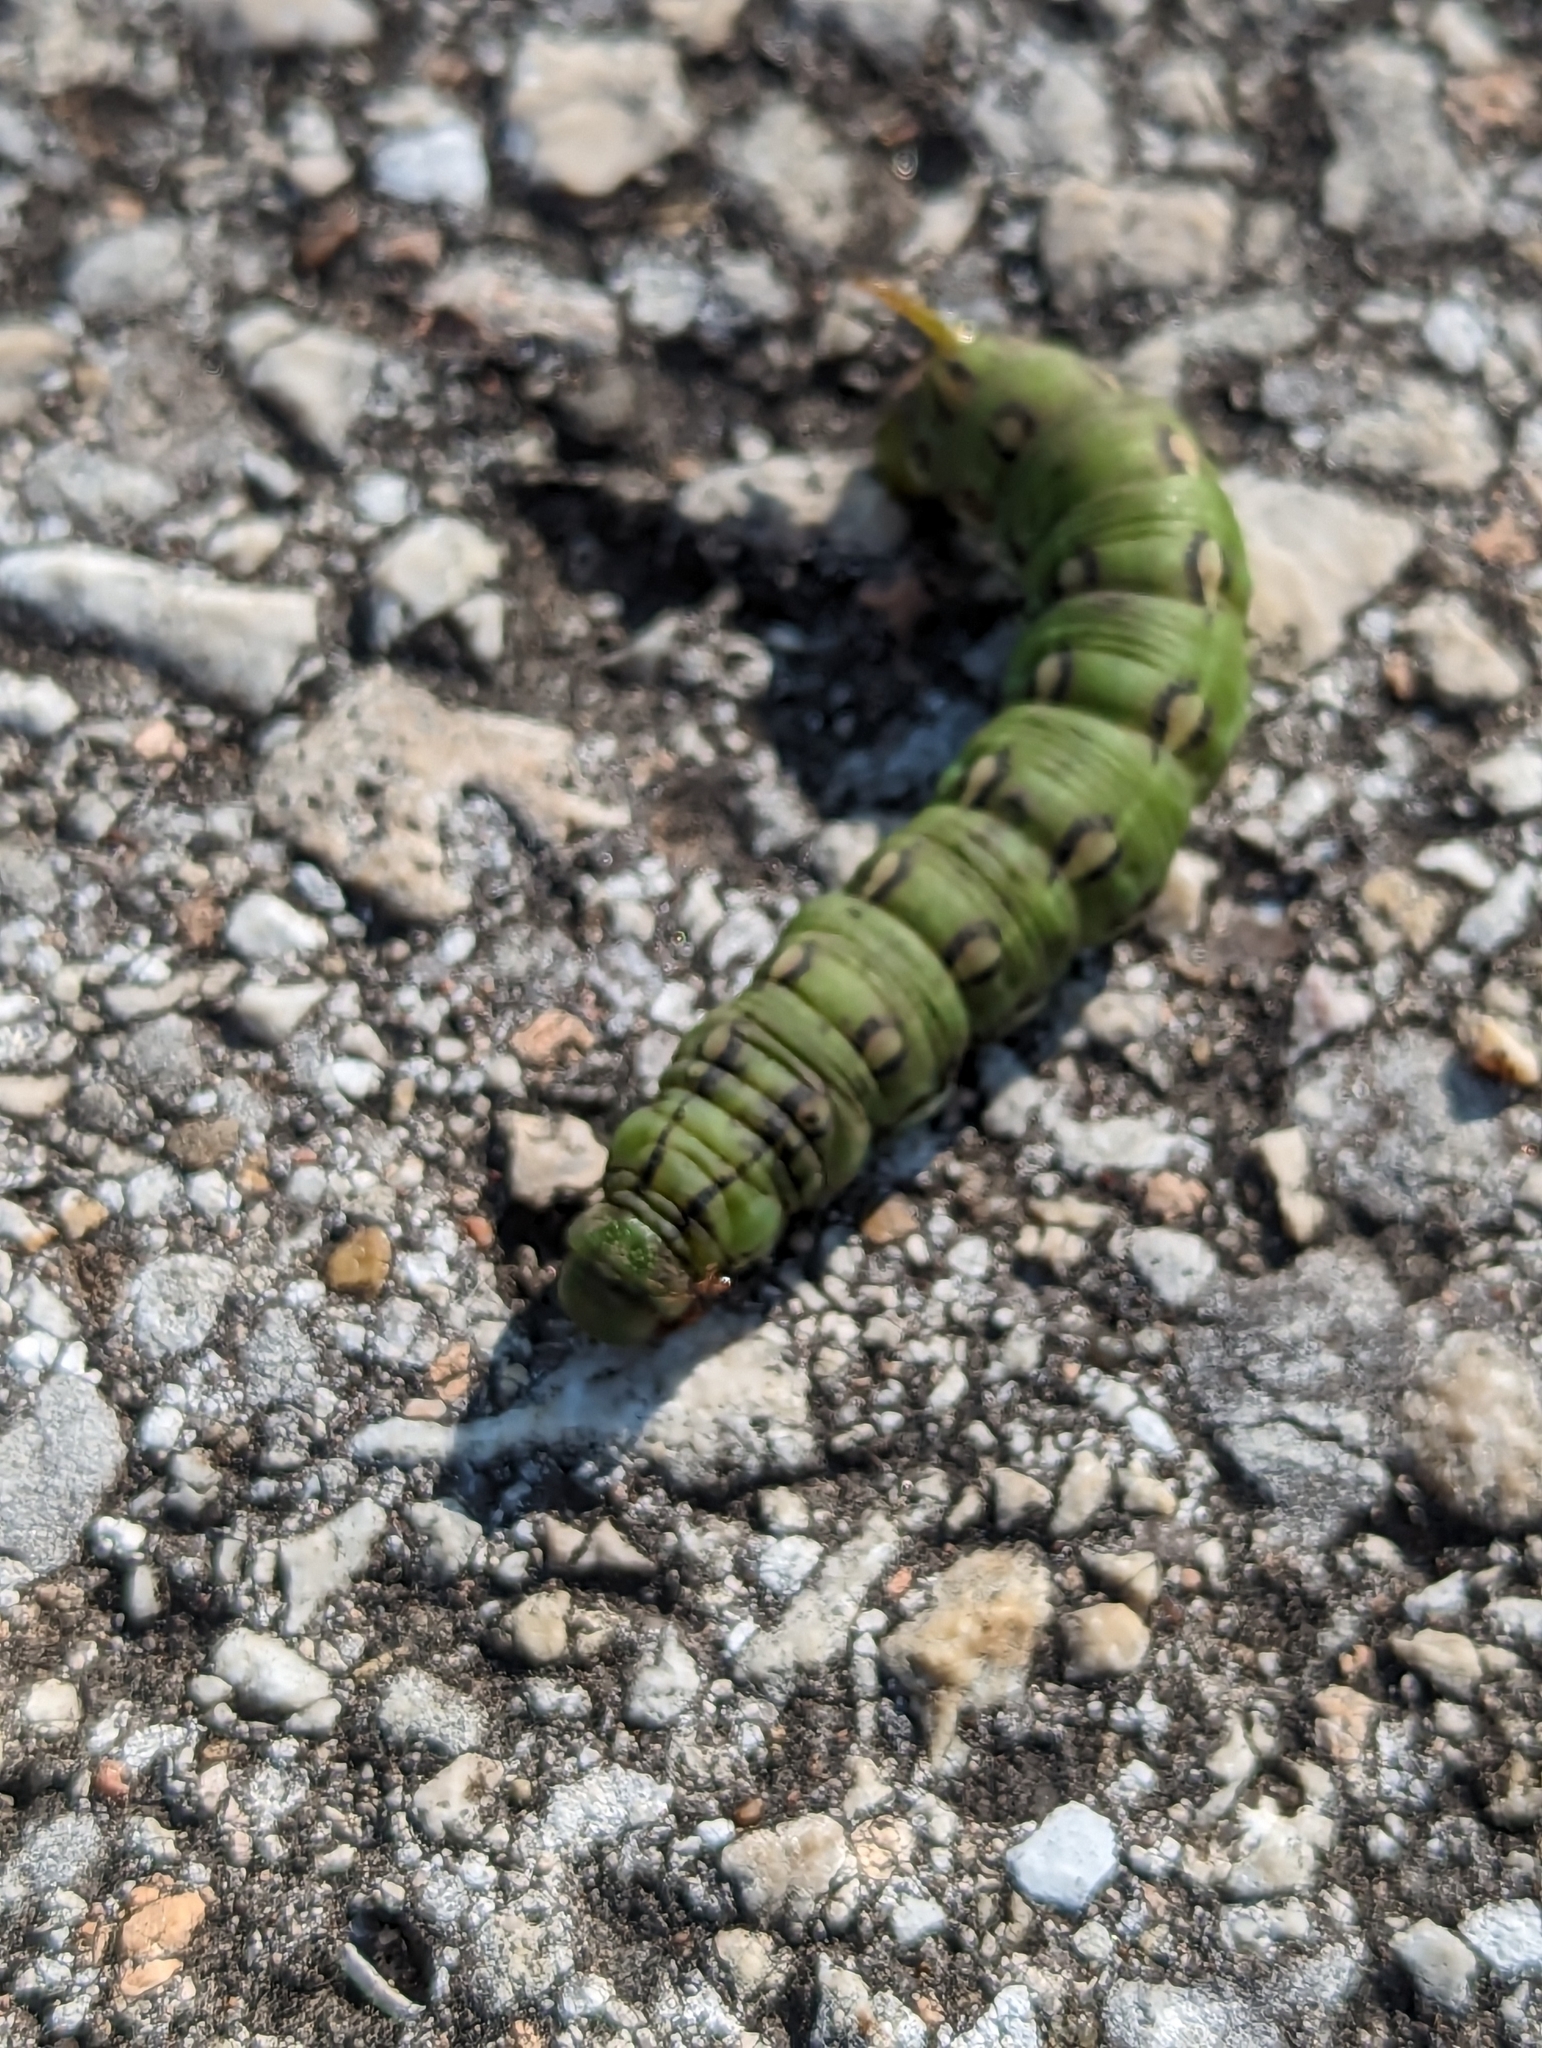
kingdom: Animalia
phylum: Arthropoda
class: Insecta
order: Lepidoptera
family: Sphingidae
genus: Hyles
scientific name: Hyles lineata
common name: White-lined sphinx
